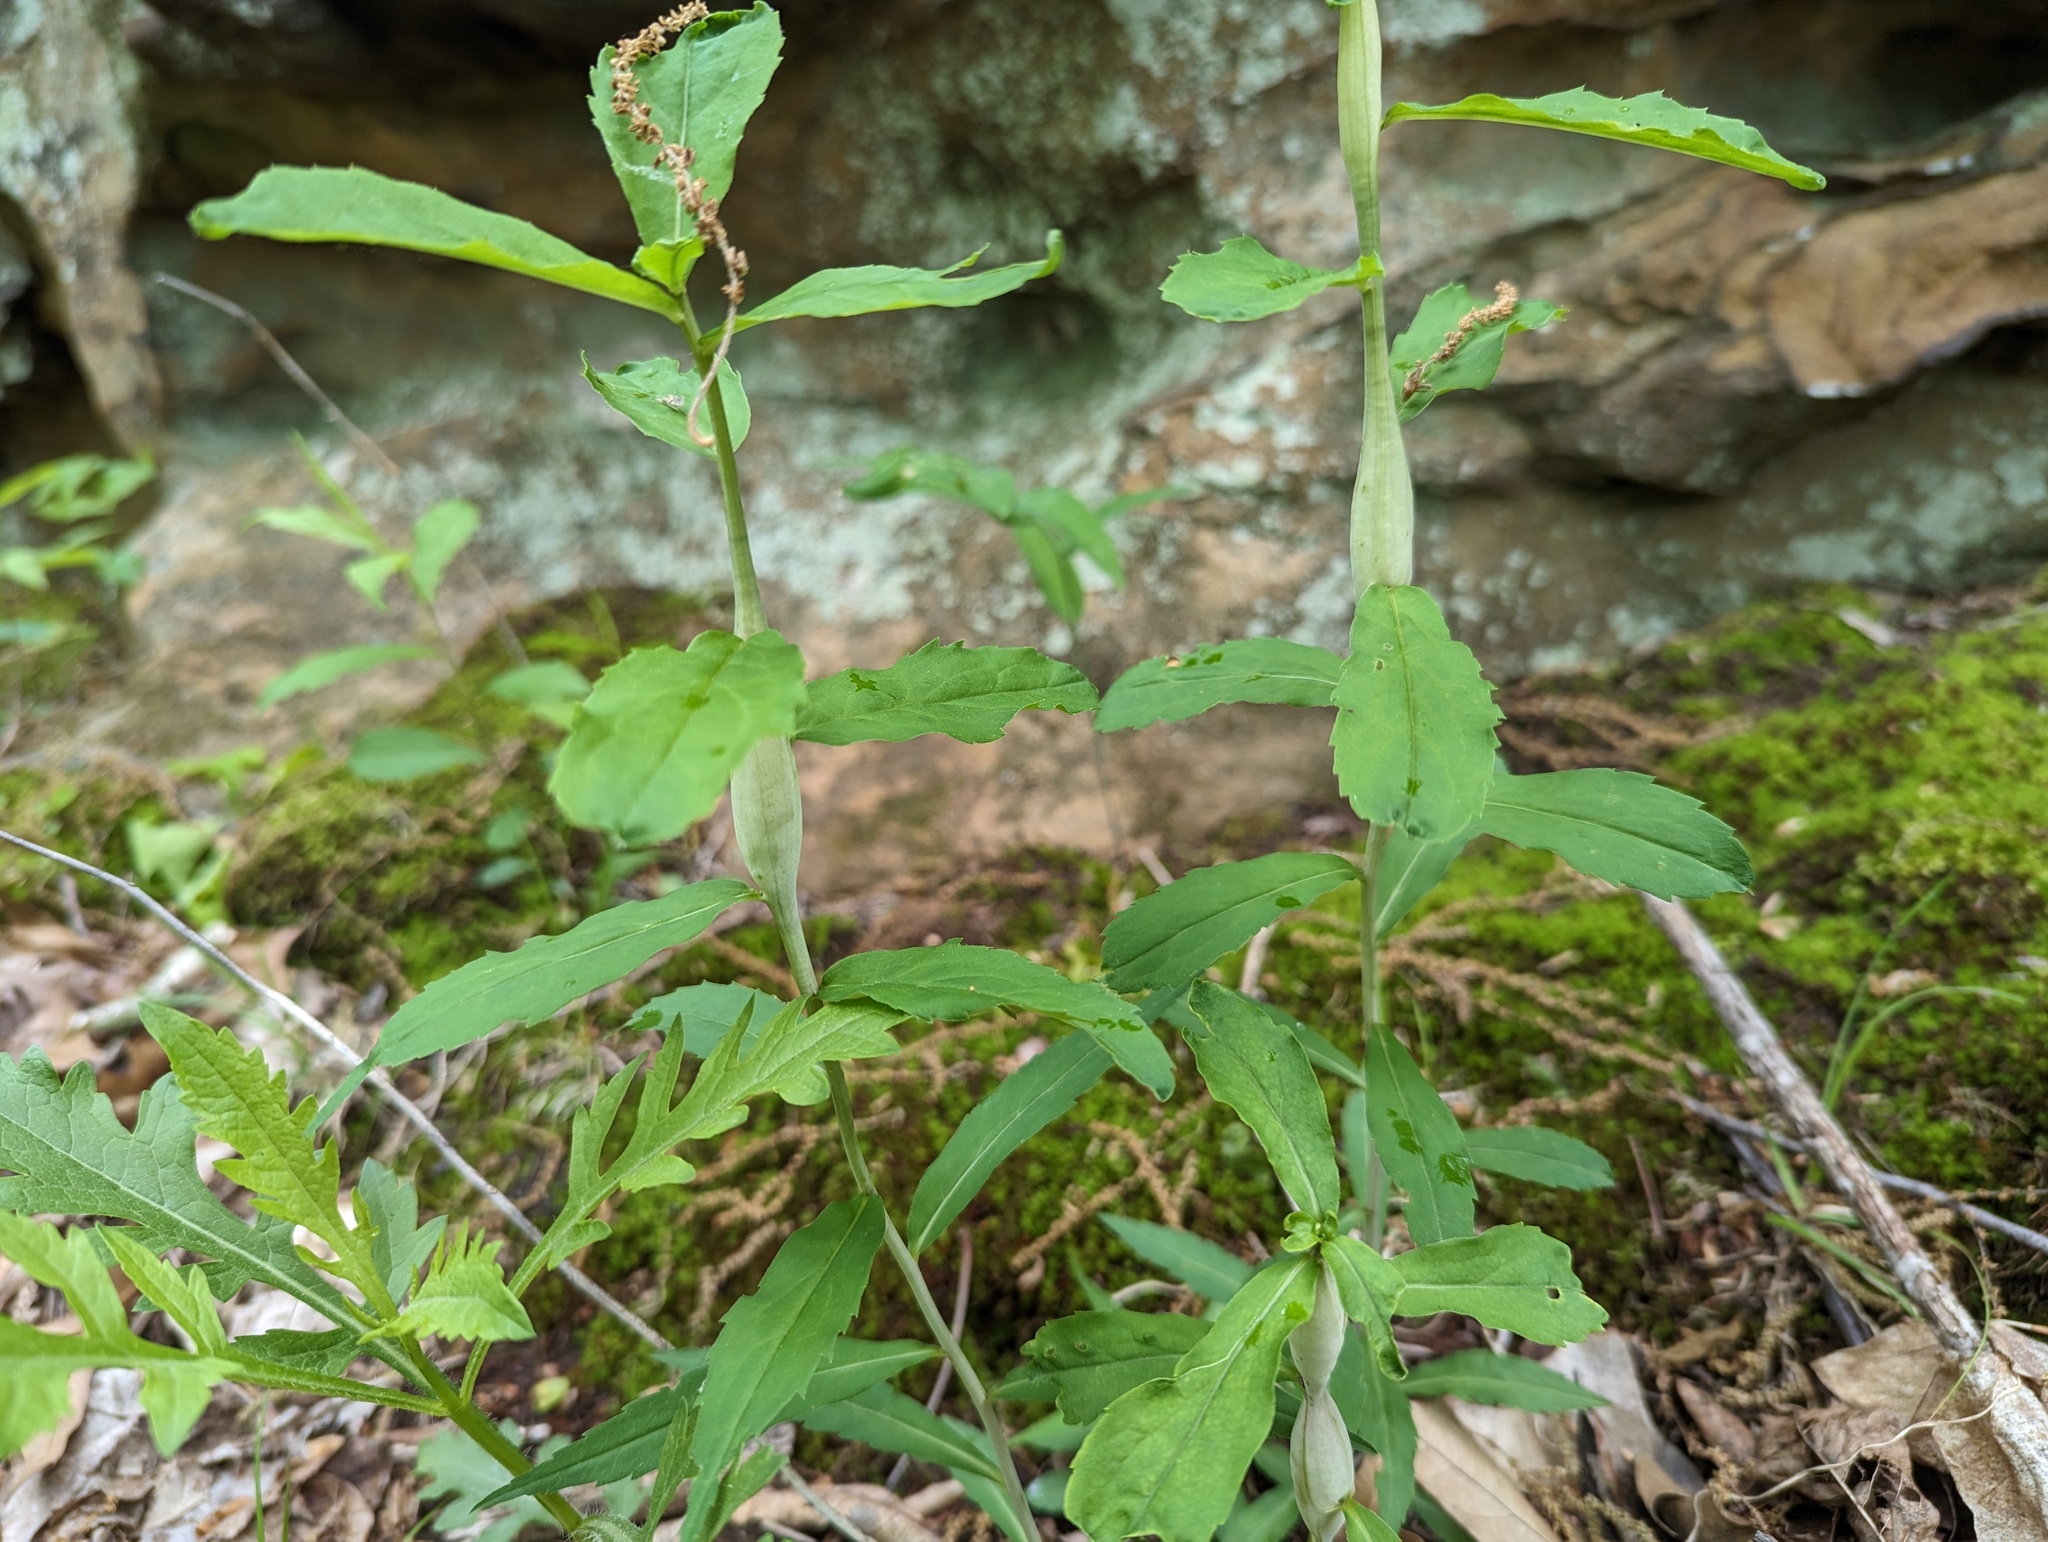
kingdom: Animalia
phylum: Arthropoda
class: Insecta
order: Lepidoptera
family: Gelechiidae
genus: Gnorimoschema
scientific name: Gnorimoschema gallaeasterella
